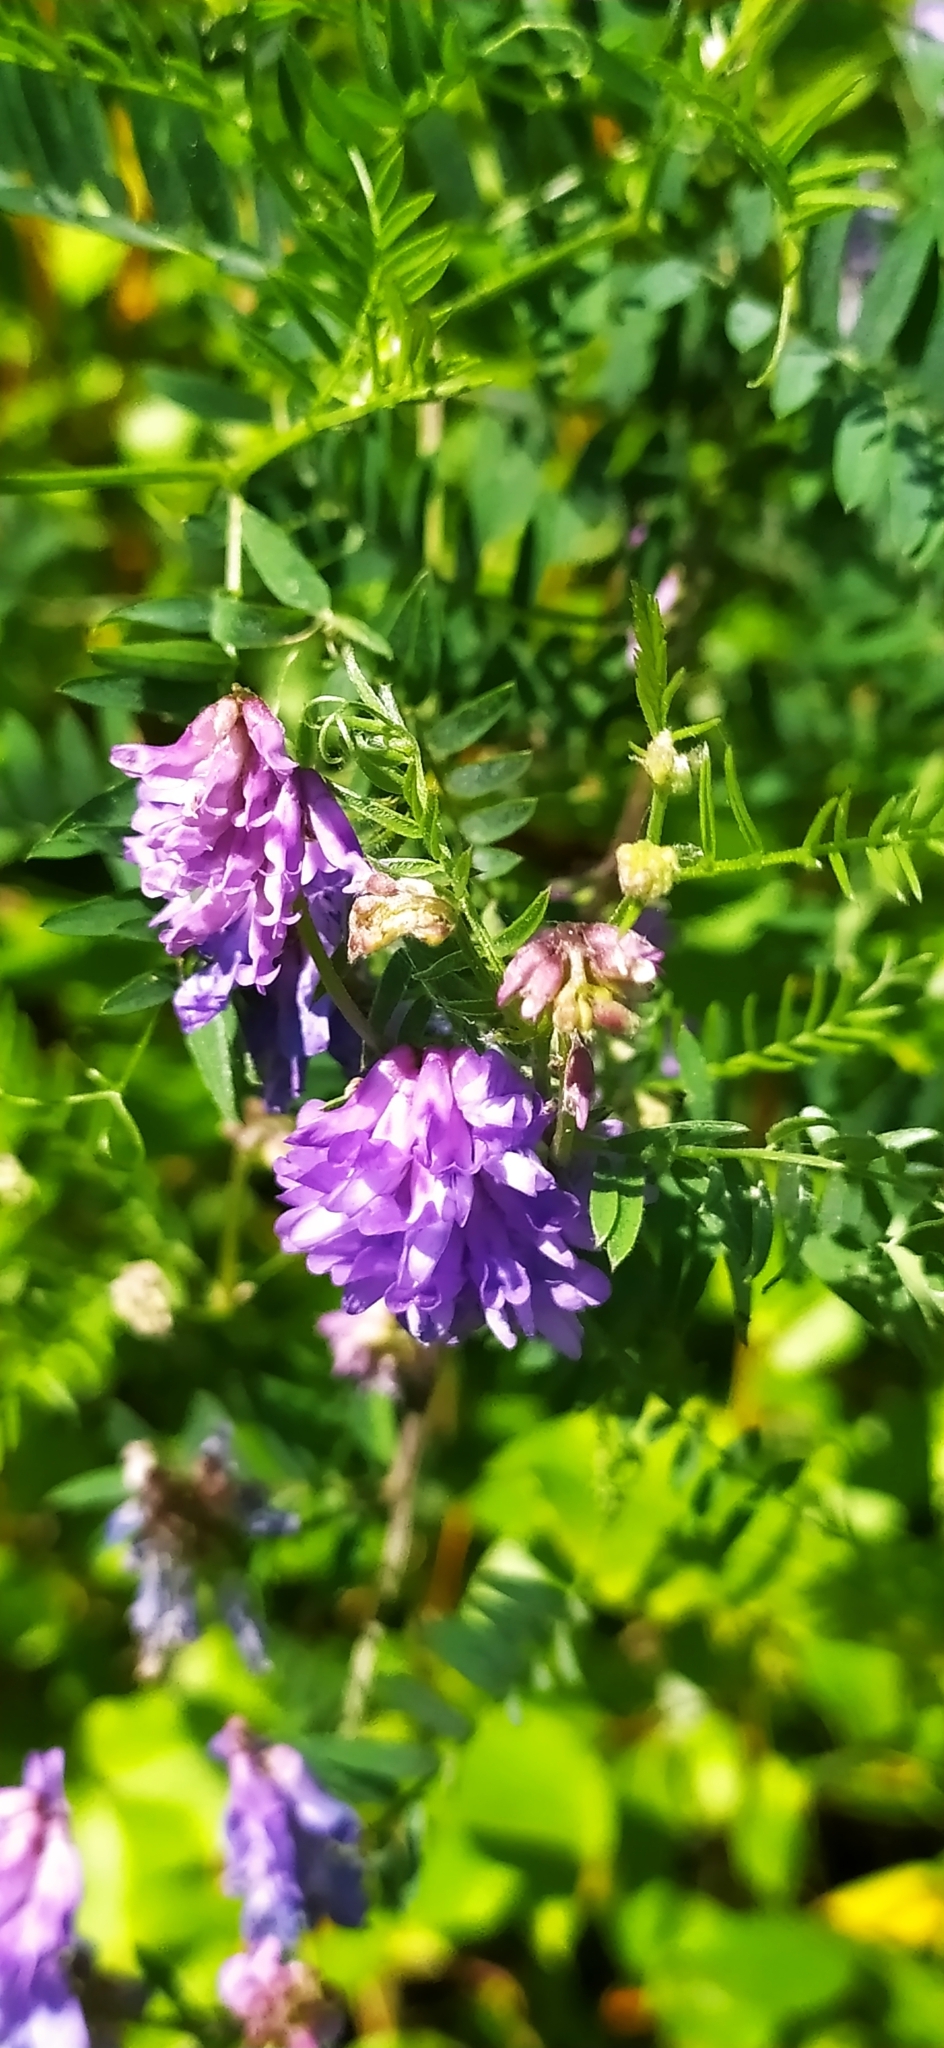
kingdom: Plantae
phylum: Tracheophyta
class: Magnoliopsida
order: Fabales
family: Fabaceae
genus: Vicia
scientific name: Vicia cracca
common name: Bird vetch
